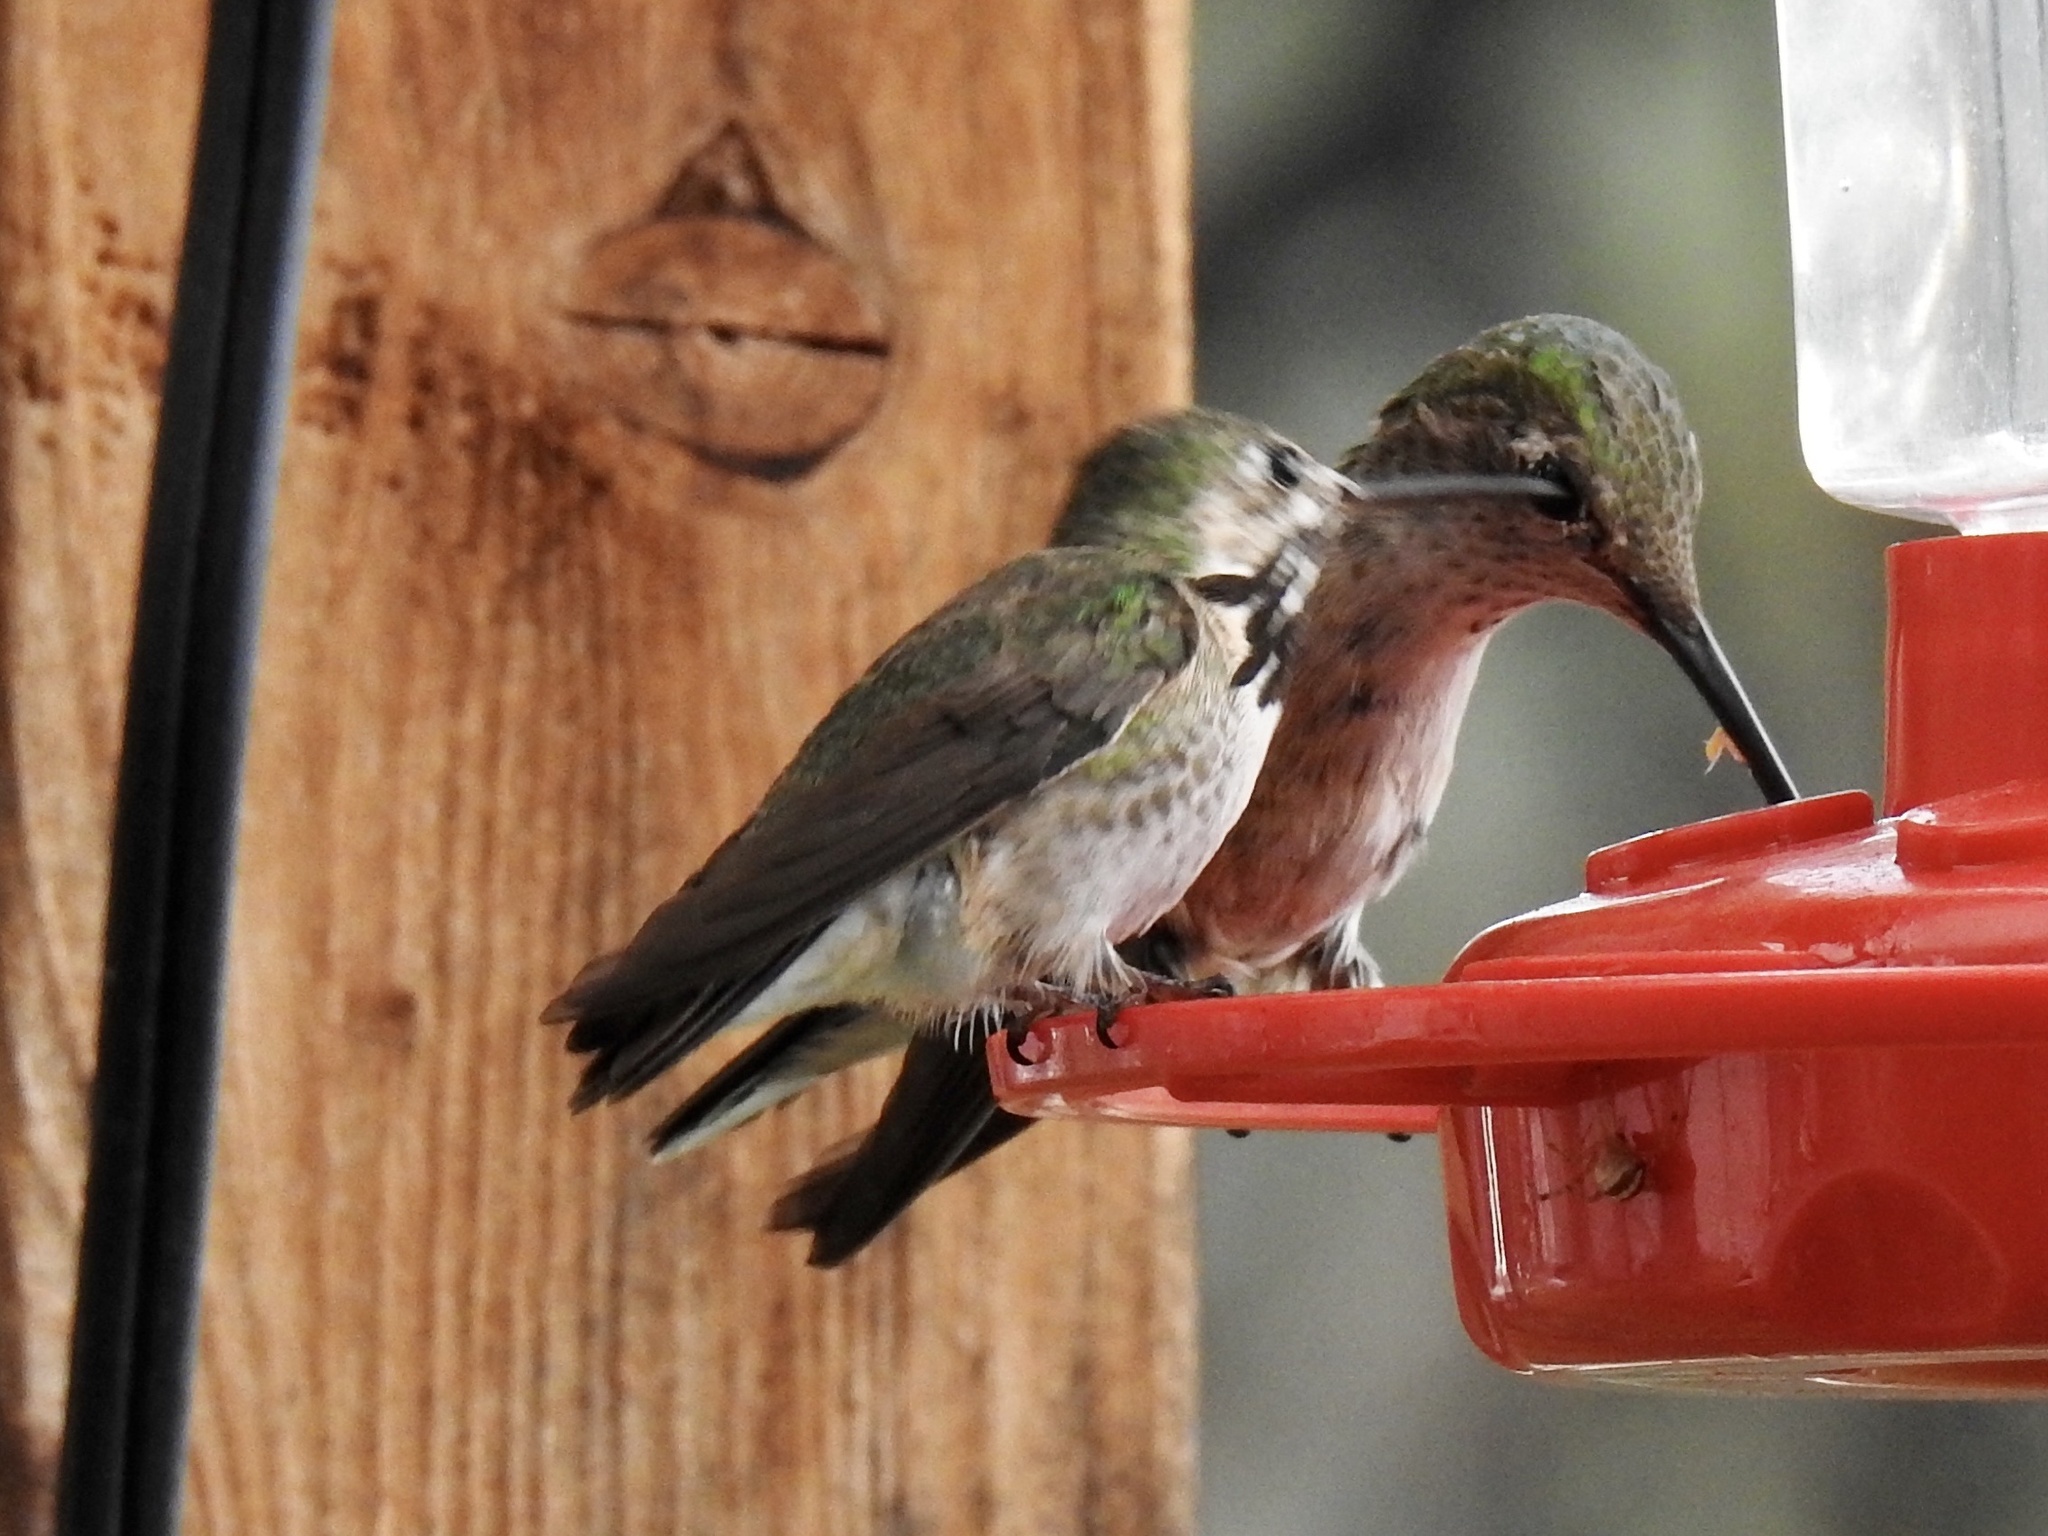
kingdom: Animalia
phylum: Chordata
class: Aves
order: Apodiformes
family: Trochilidae
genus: Selasphorus
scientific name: Selasphorus calliope
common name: Calliope hummingbird
